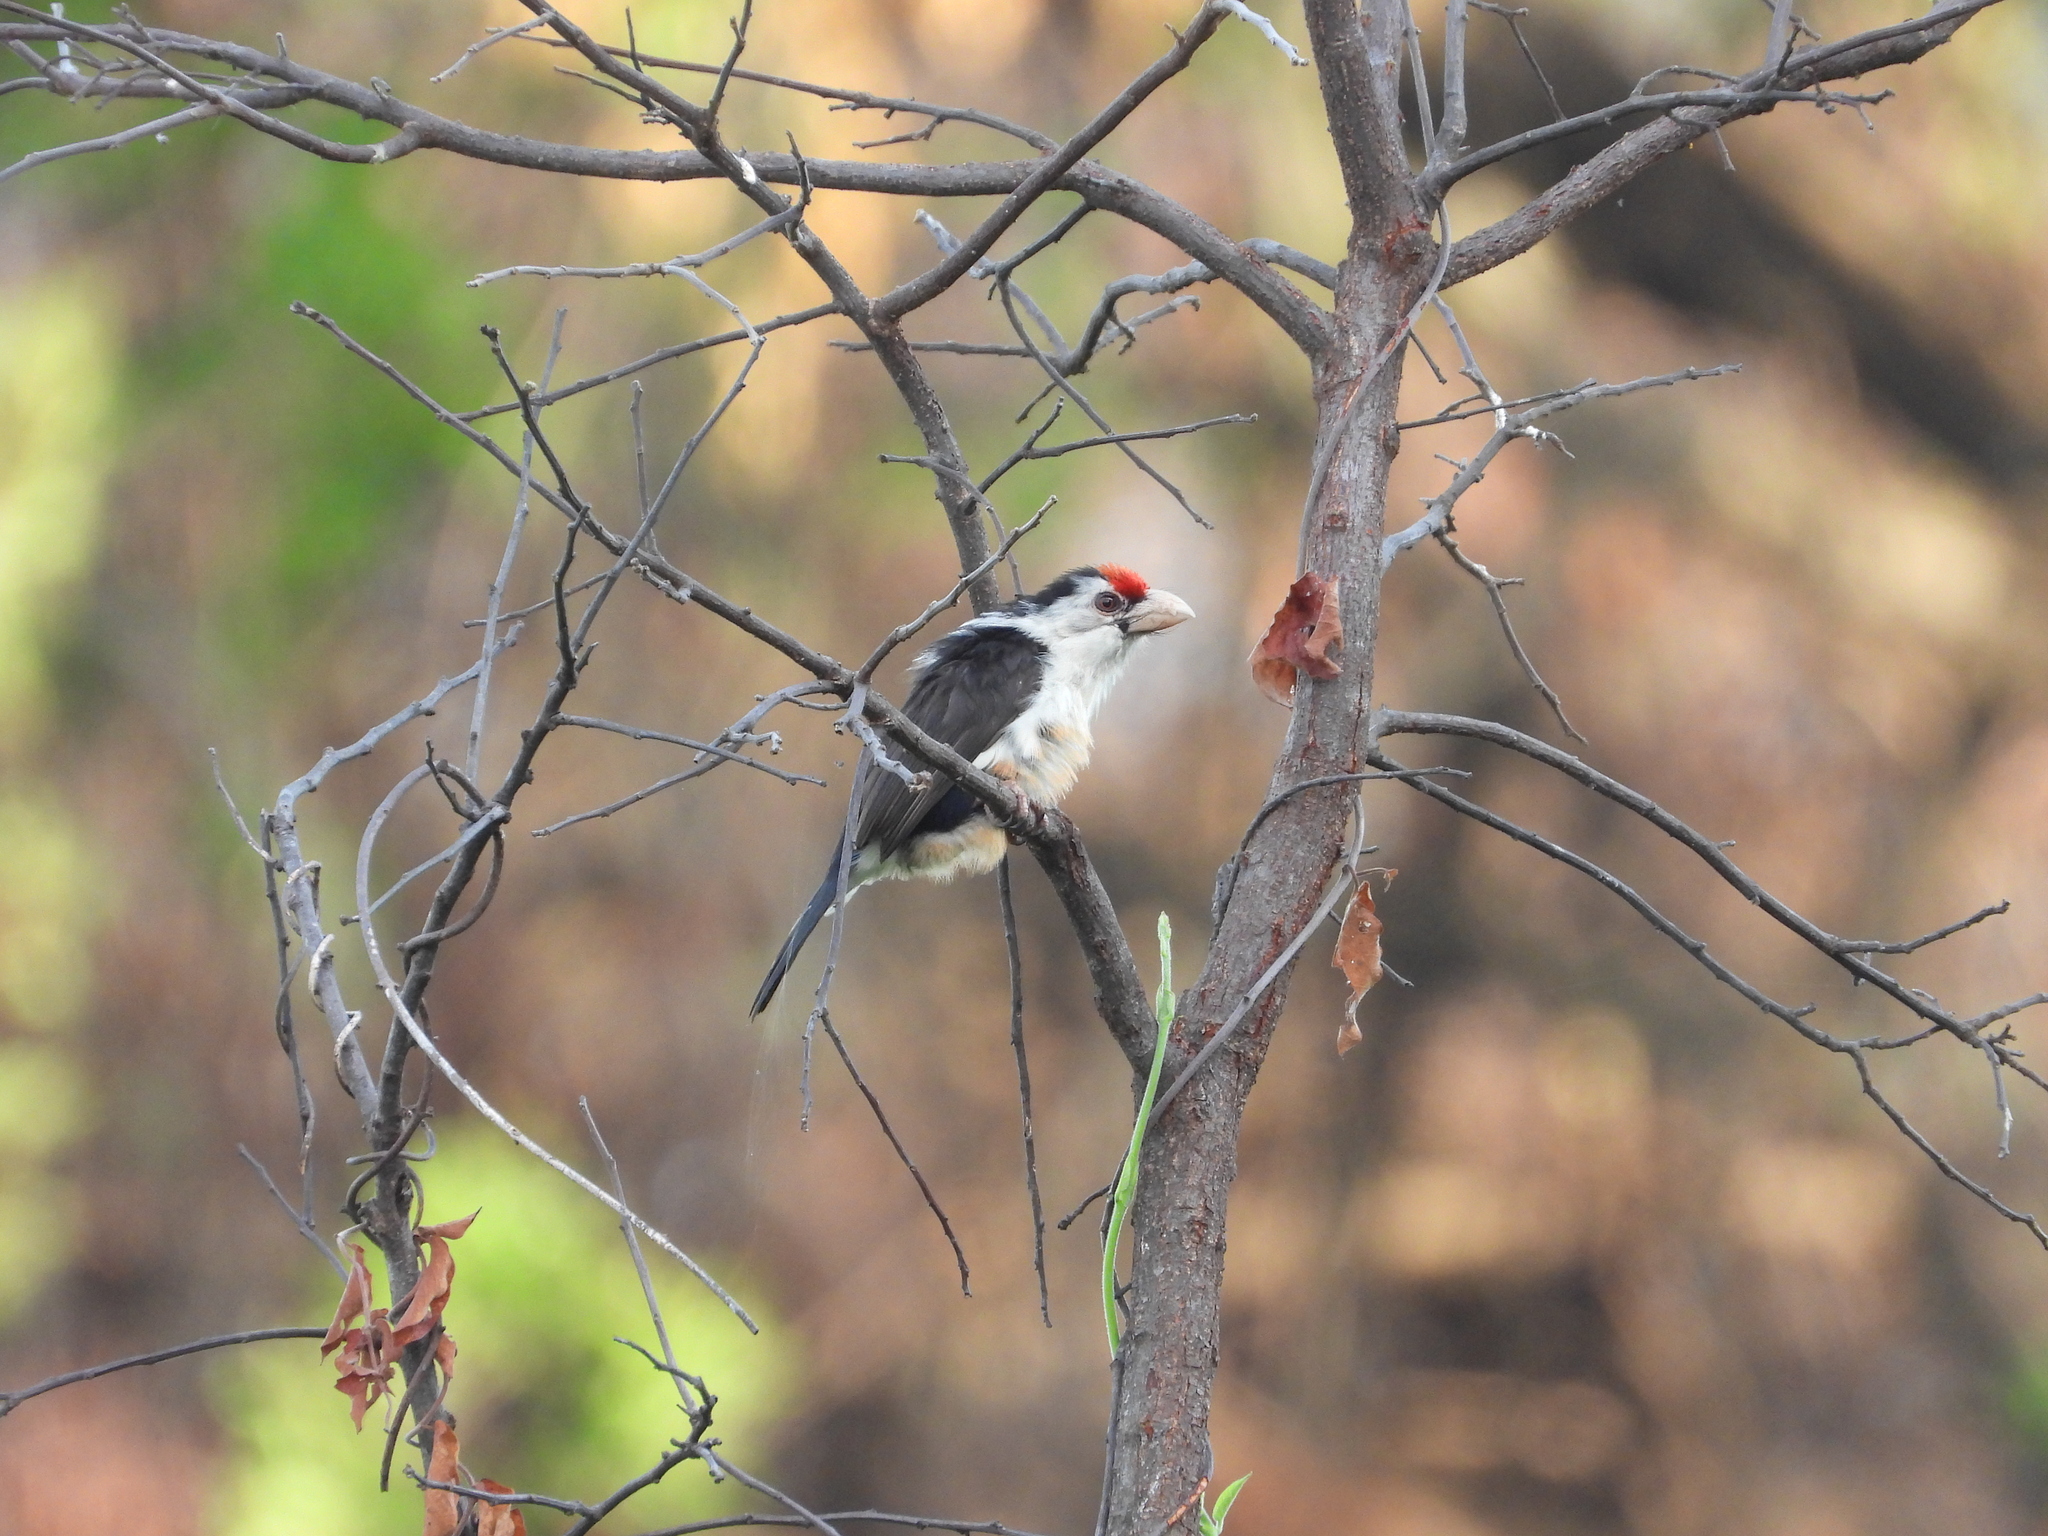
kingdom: Animalia
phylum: Chordata
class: Aves
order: Piciformes
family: Lybiidae
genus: Lybius
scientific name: Lybius minor
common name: Black-backed barbet
